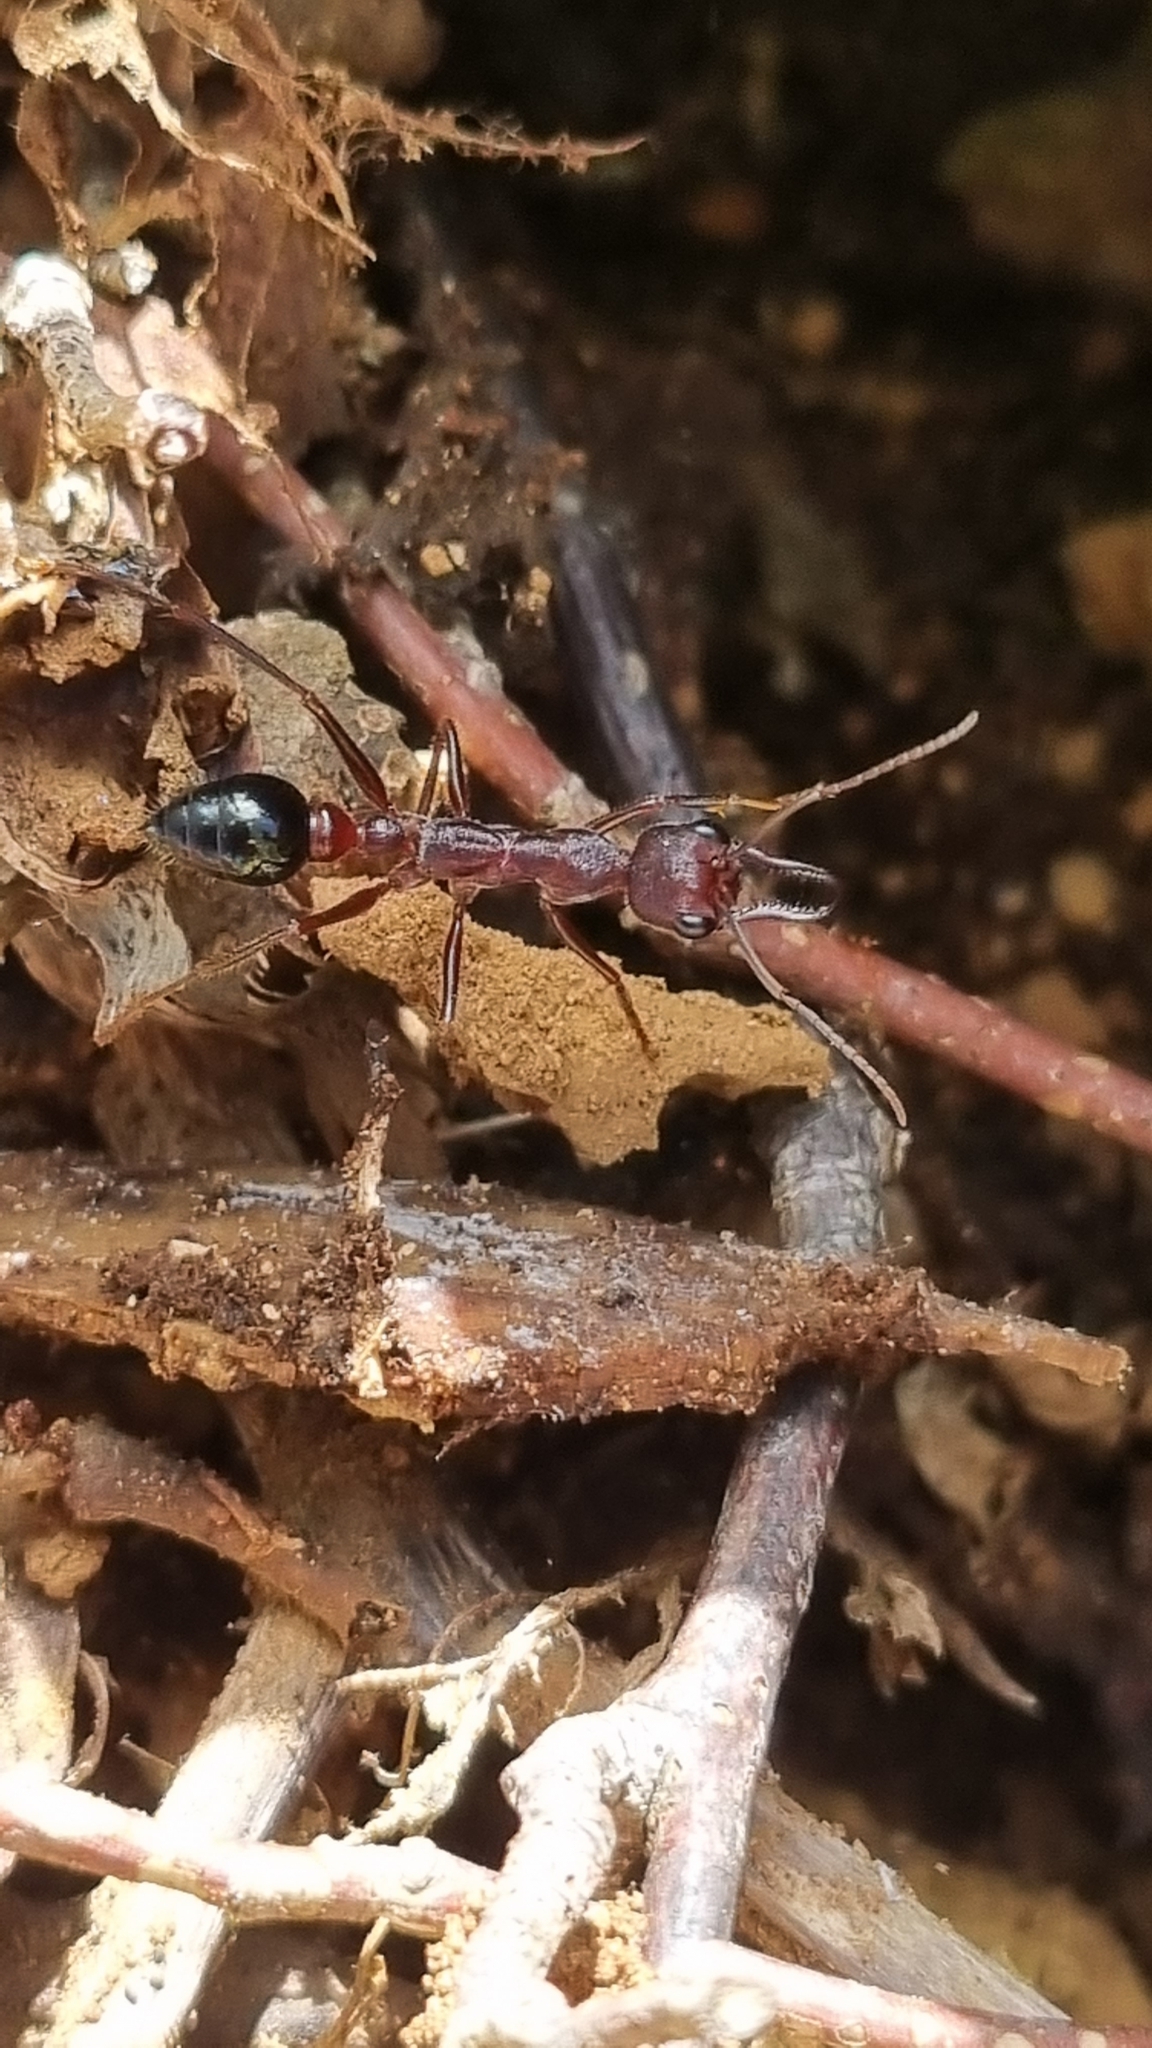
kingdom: Animalia
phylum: Arthropoda
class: Insecta
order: Hymenoptera
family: Formicidae
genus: Myrmecia
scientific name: Myrmecia forficata
